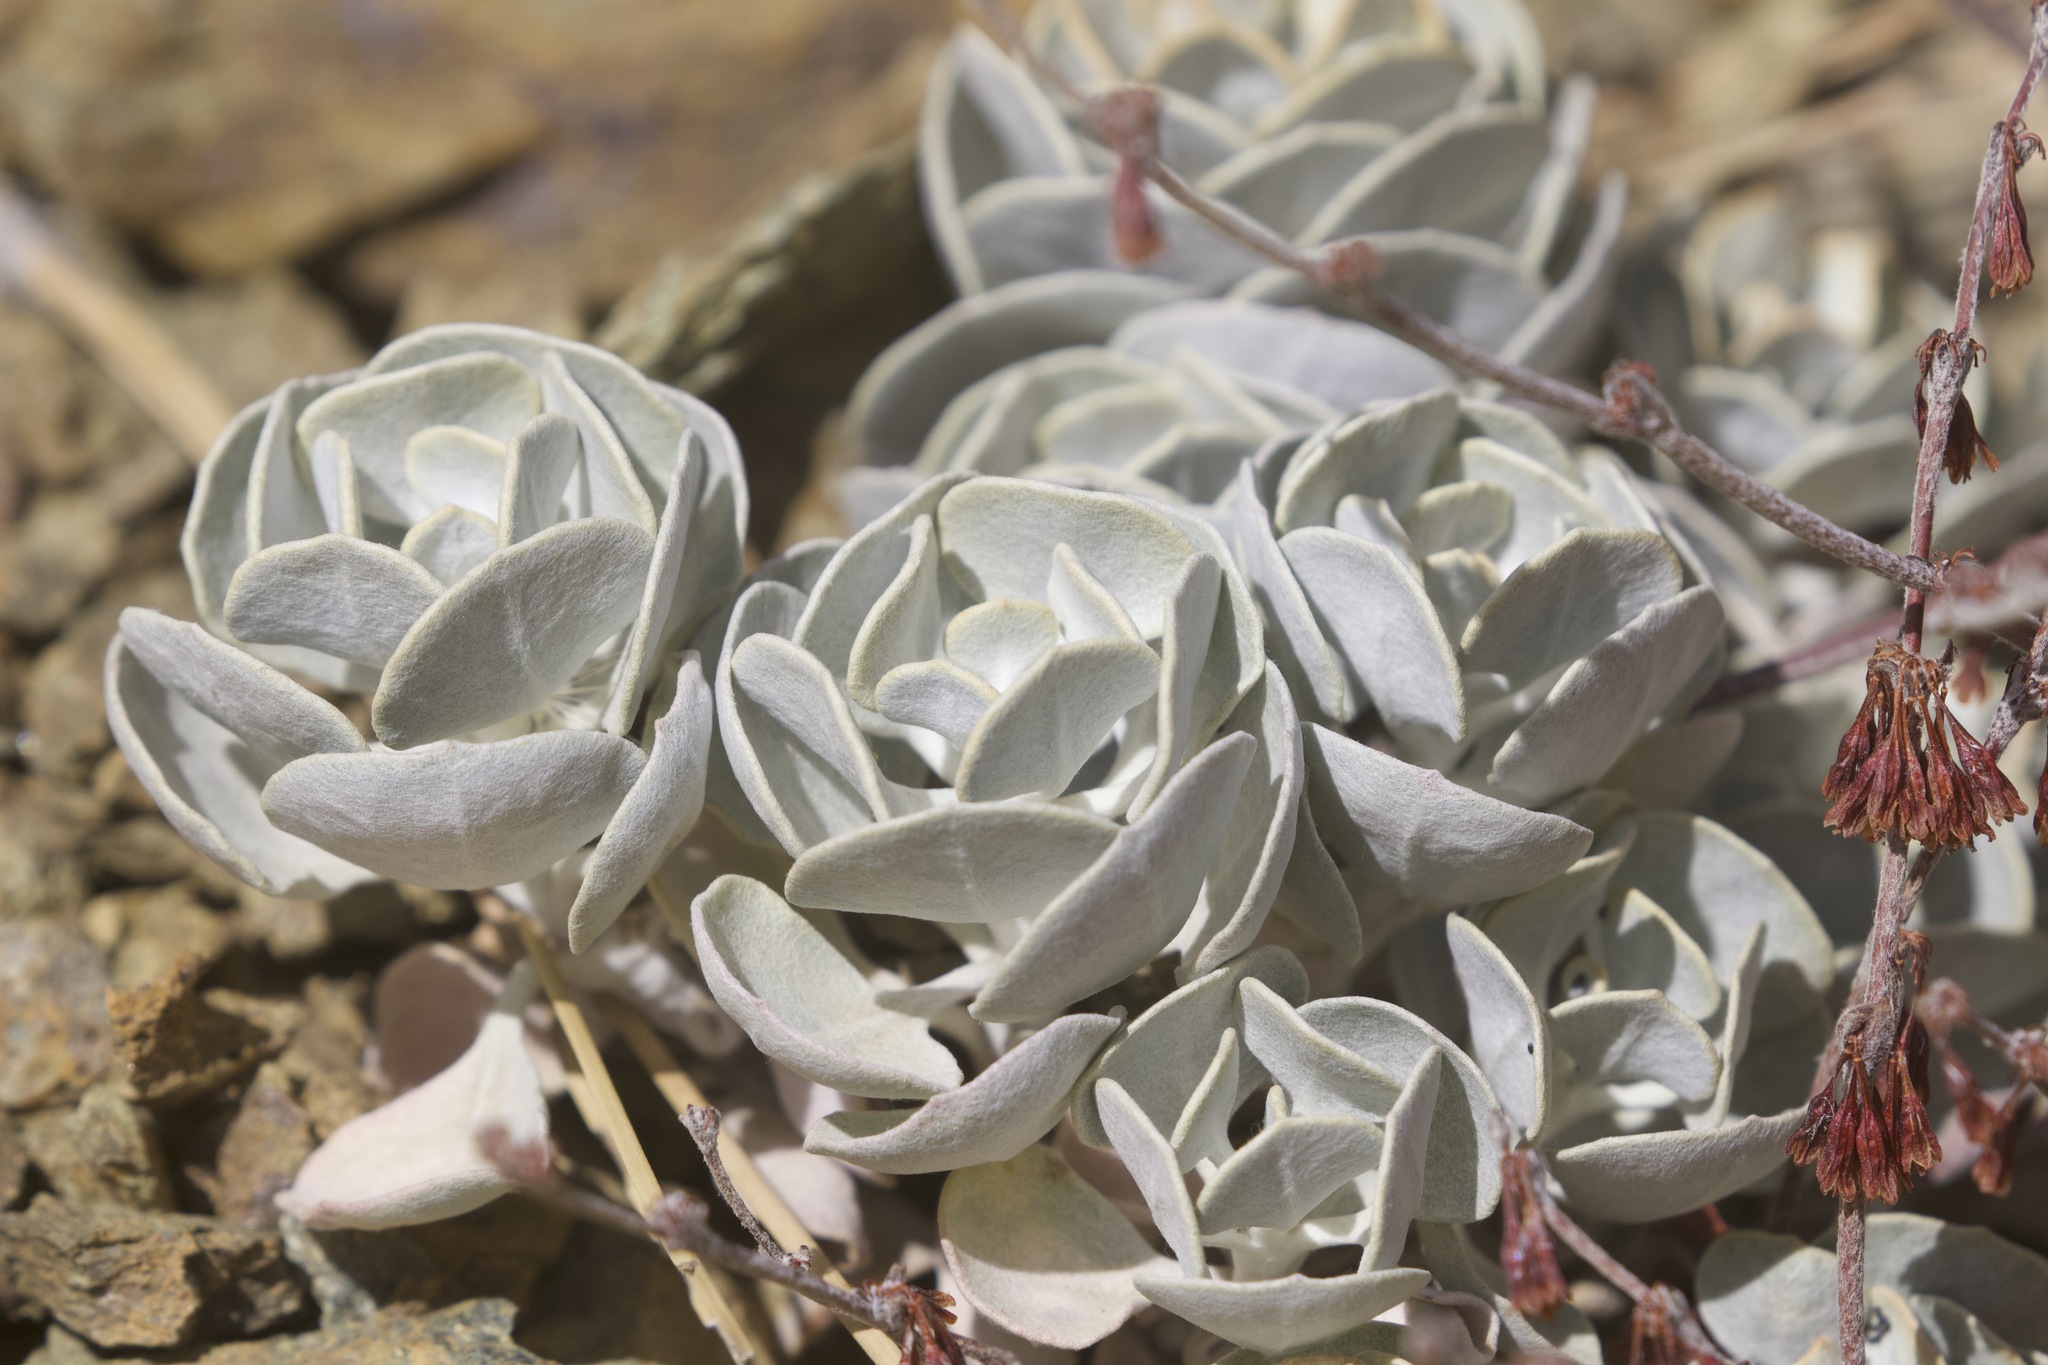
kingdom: Plantae
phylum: Tracheophyta
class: Magnoliopsida
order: Caryophyllales
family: Polygonaceae
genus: Eriogonum
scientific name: Eriogonum saxatile
